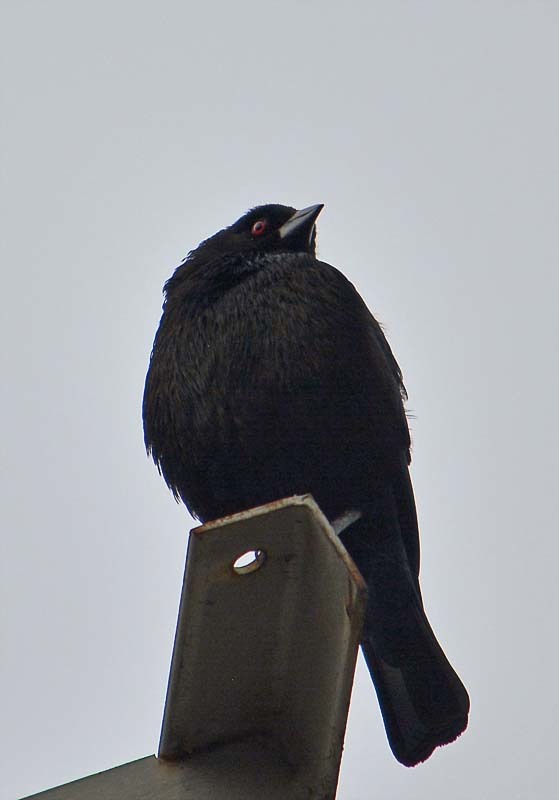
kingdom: Animalia
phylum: Chordata
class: Aves
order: Passeriformes
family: Icteridae
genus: Molothrus
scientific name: Molothrus aeneus
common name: Bronzed cowbird
